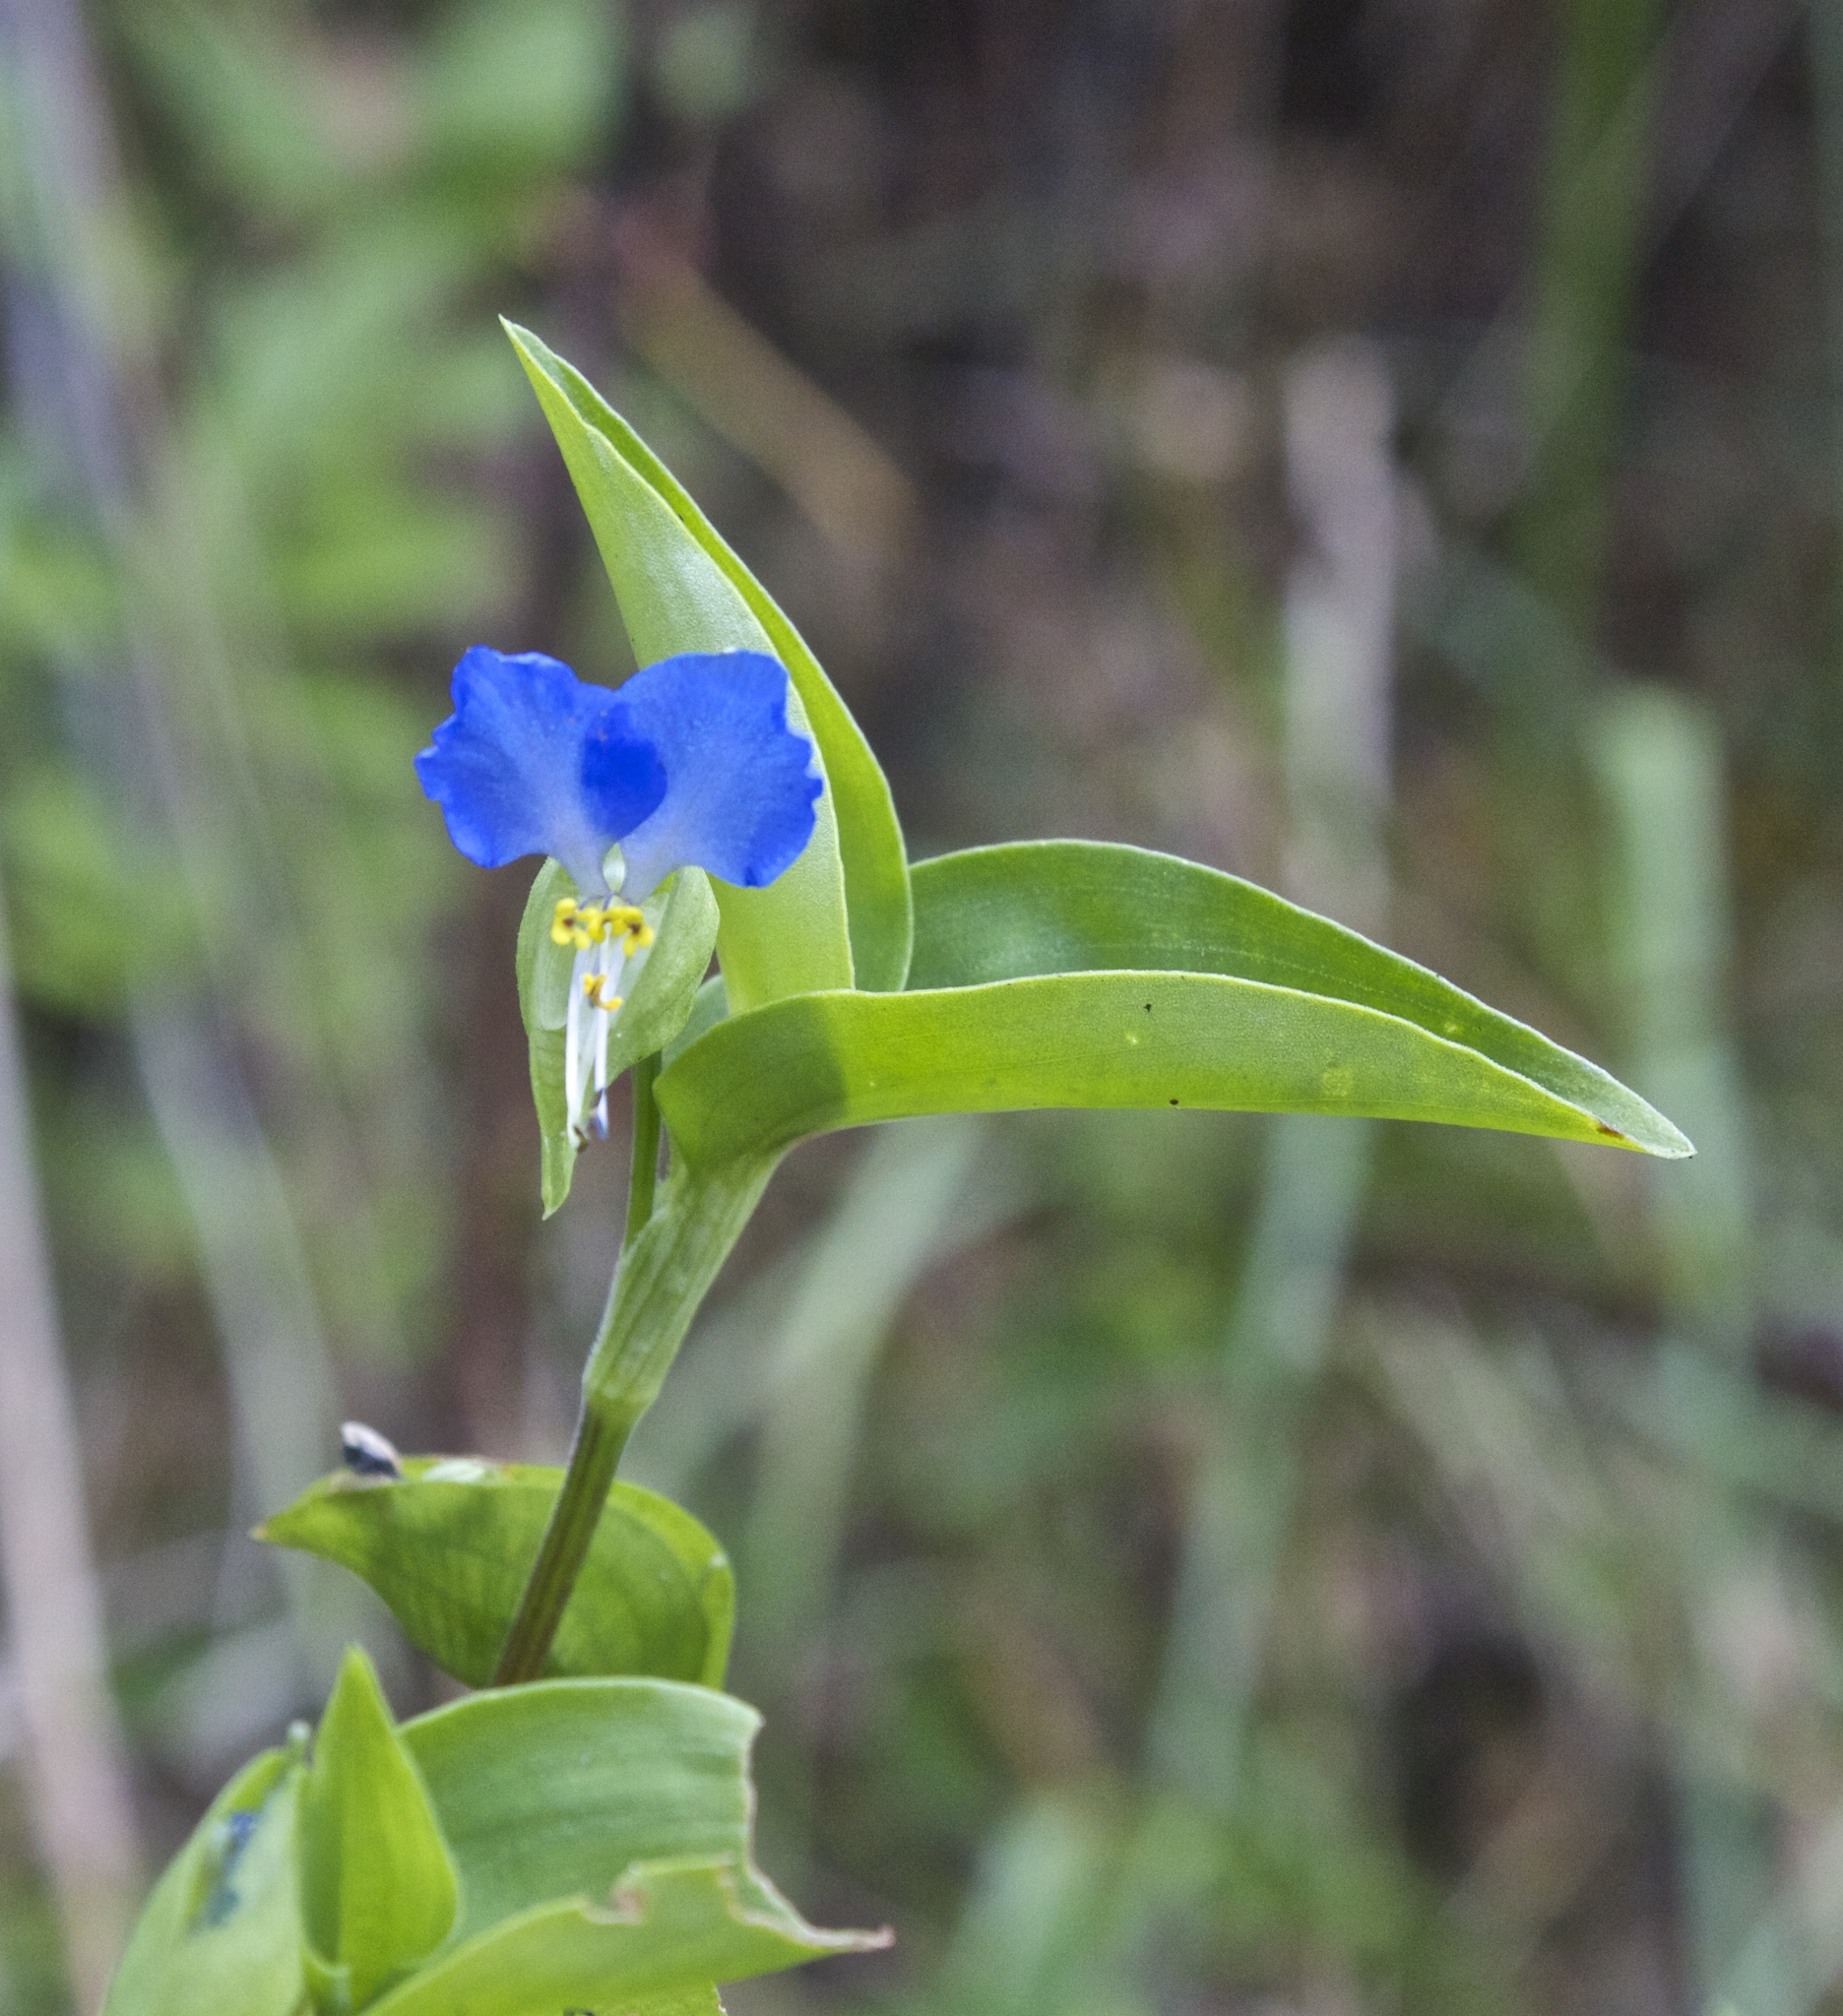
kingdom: Plantae
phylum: Tracheophyta
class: Liliopsida
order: Commelinales
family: Commelinaceae
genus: Commelina
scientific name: Commelina communis
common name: Asiatic dayflower
